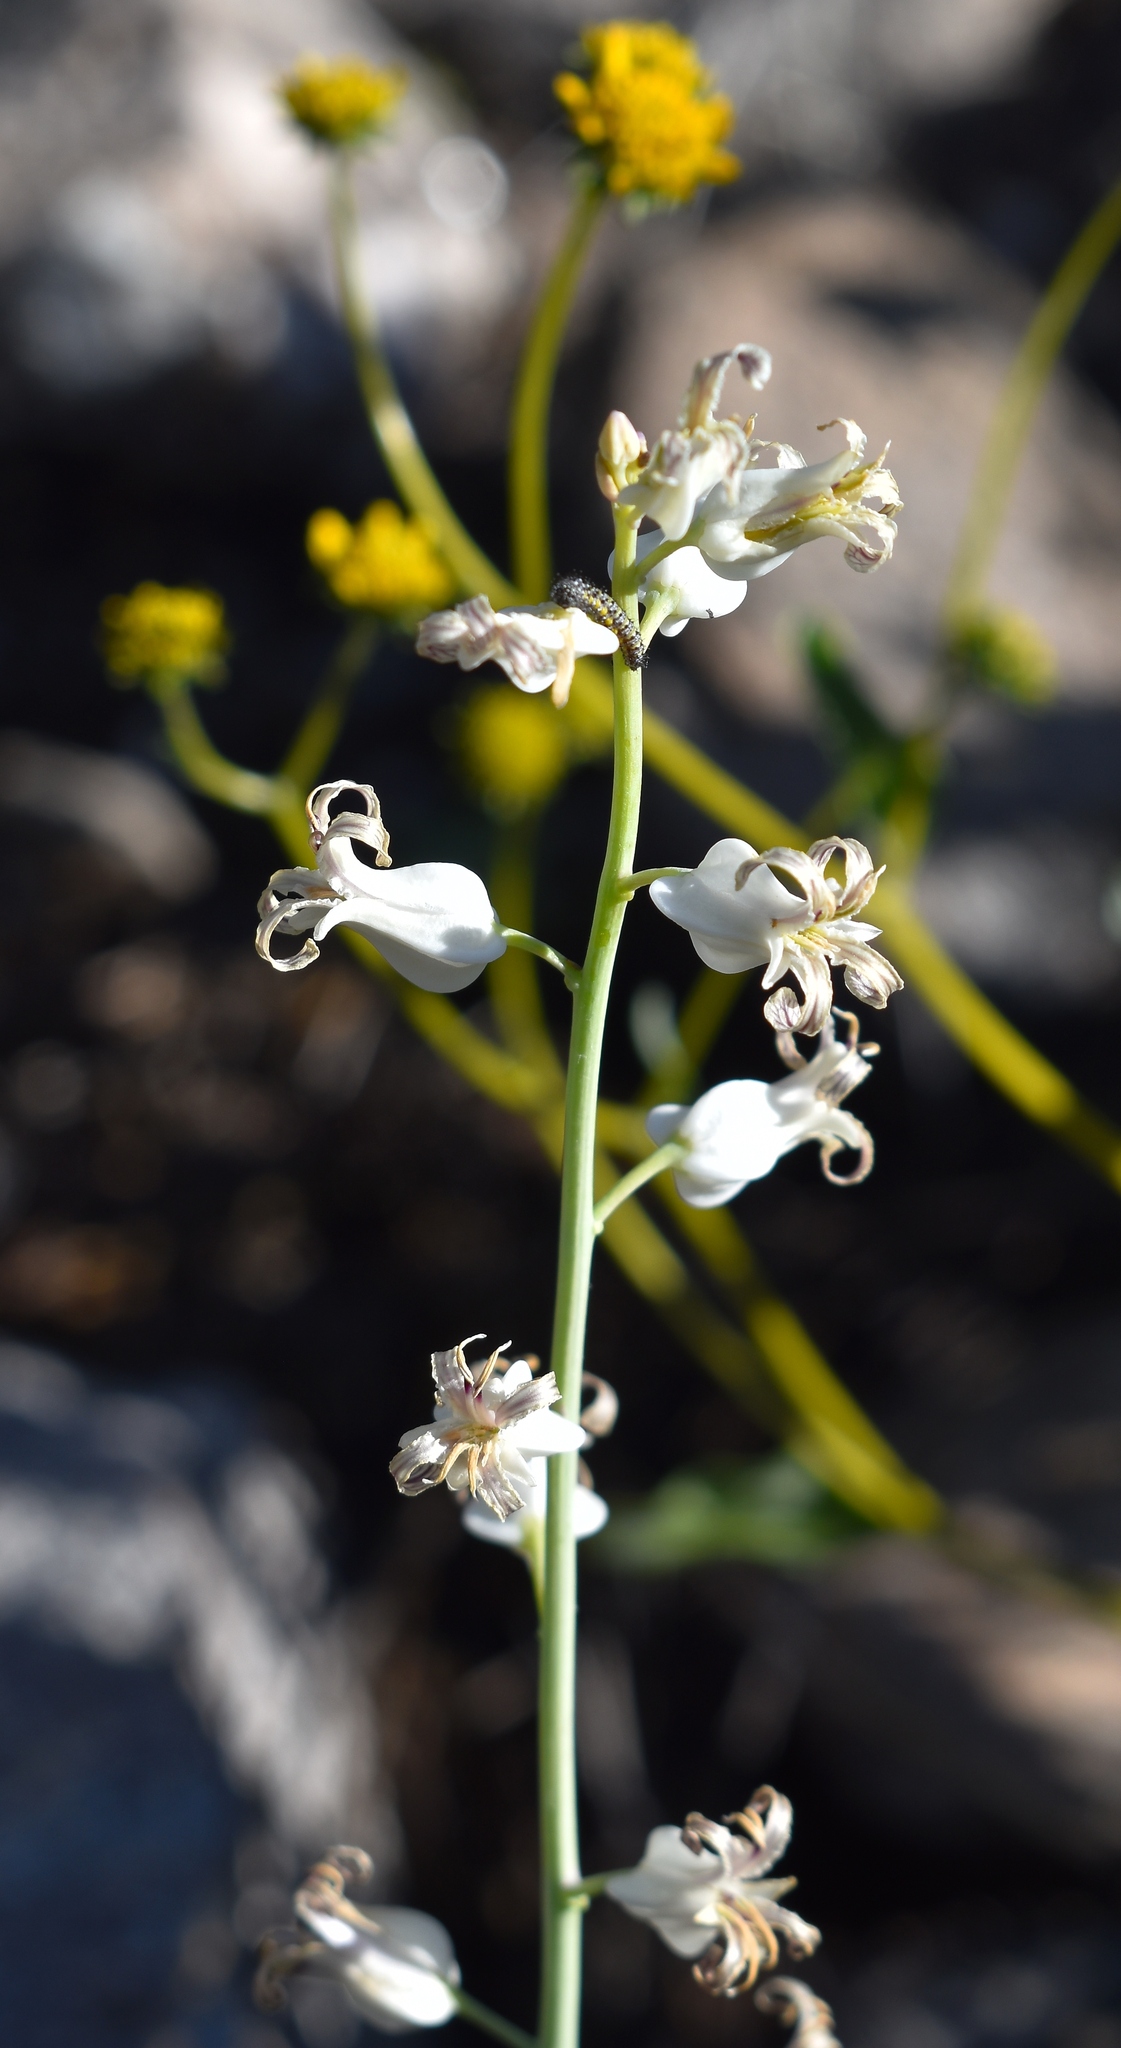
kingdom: Plantae
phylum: Tracheophyta
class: Magnoliopsida
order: Brassicales
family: Brassicaceae
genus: Streptanthus
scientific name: Streptanthus carinatus
